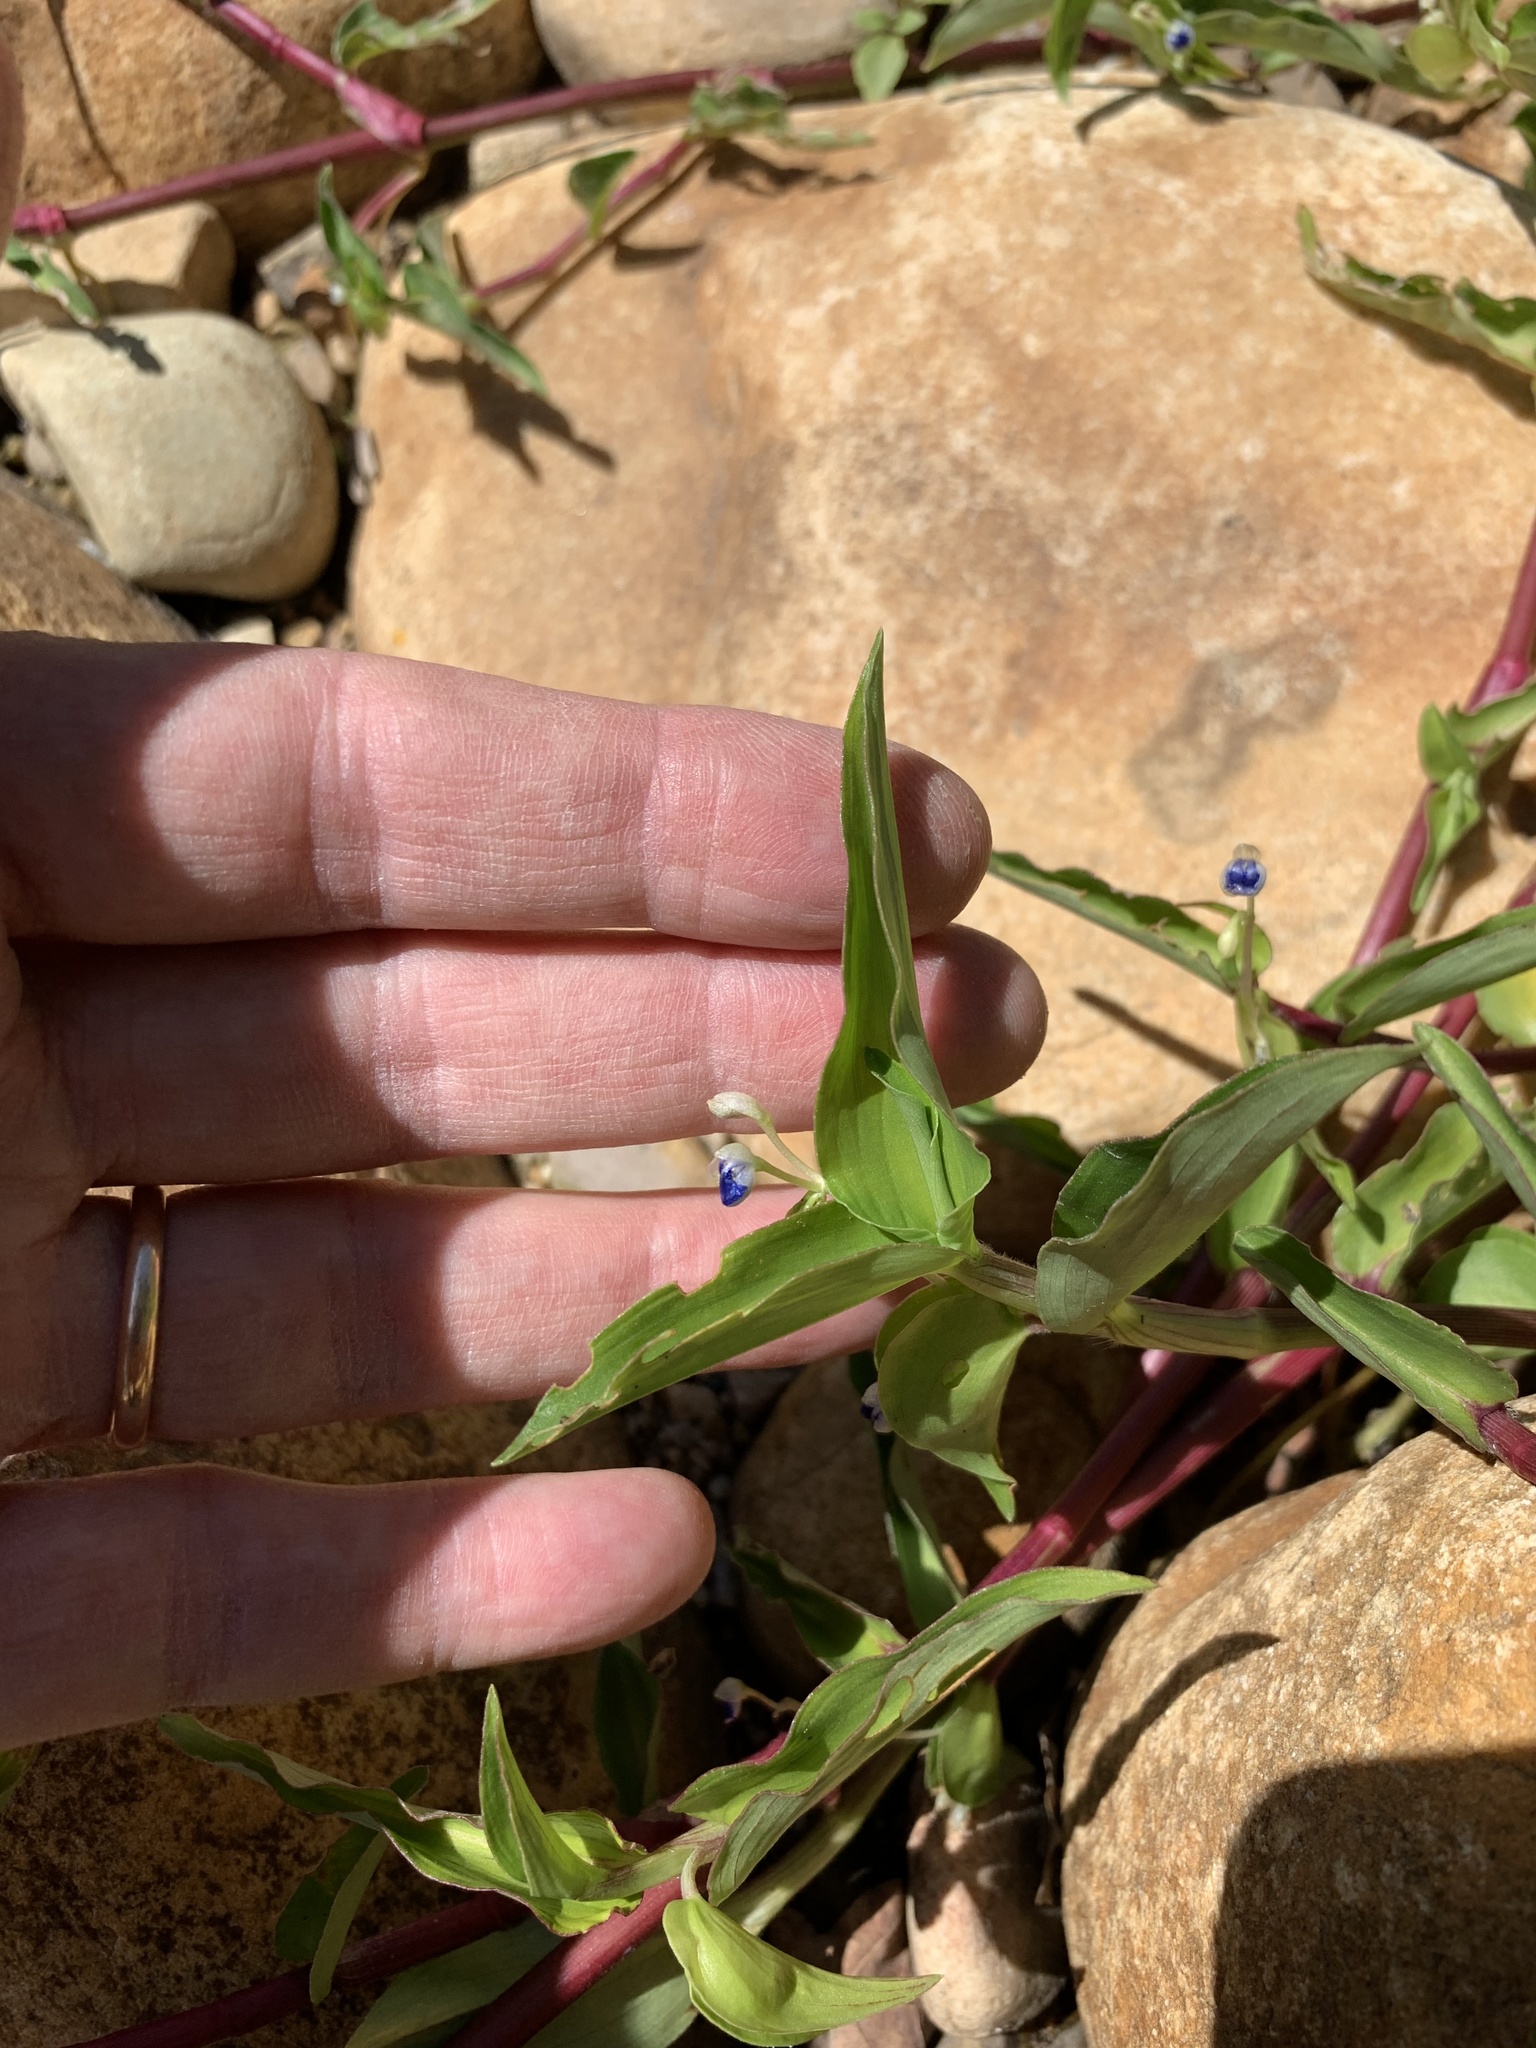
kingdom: Plantae
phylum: Tracheophyta
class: Liliopsida
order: Commelinales
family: Commelinaceae
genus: Commelina
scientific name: Commelina diffusa
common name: Climbing dayflower
